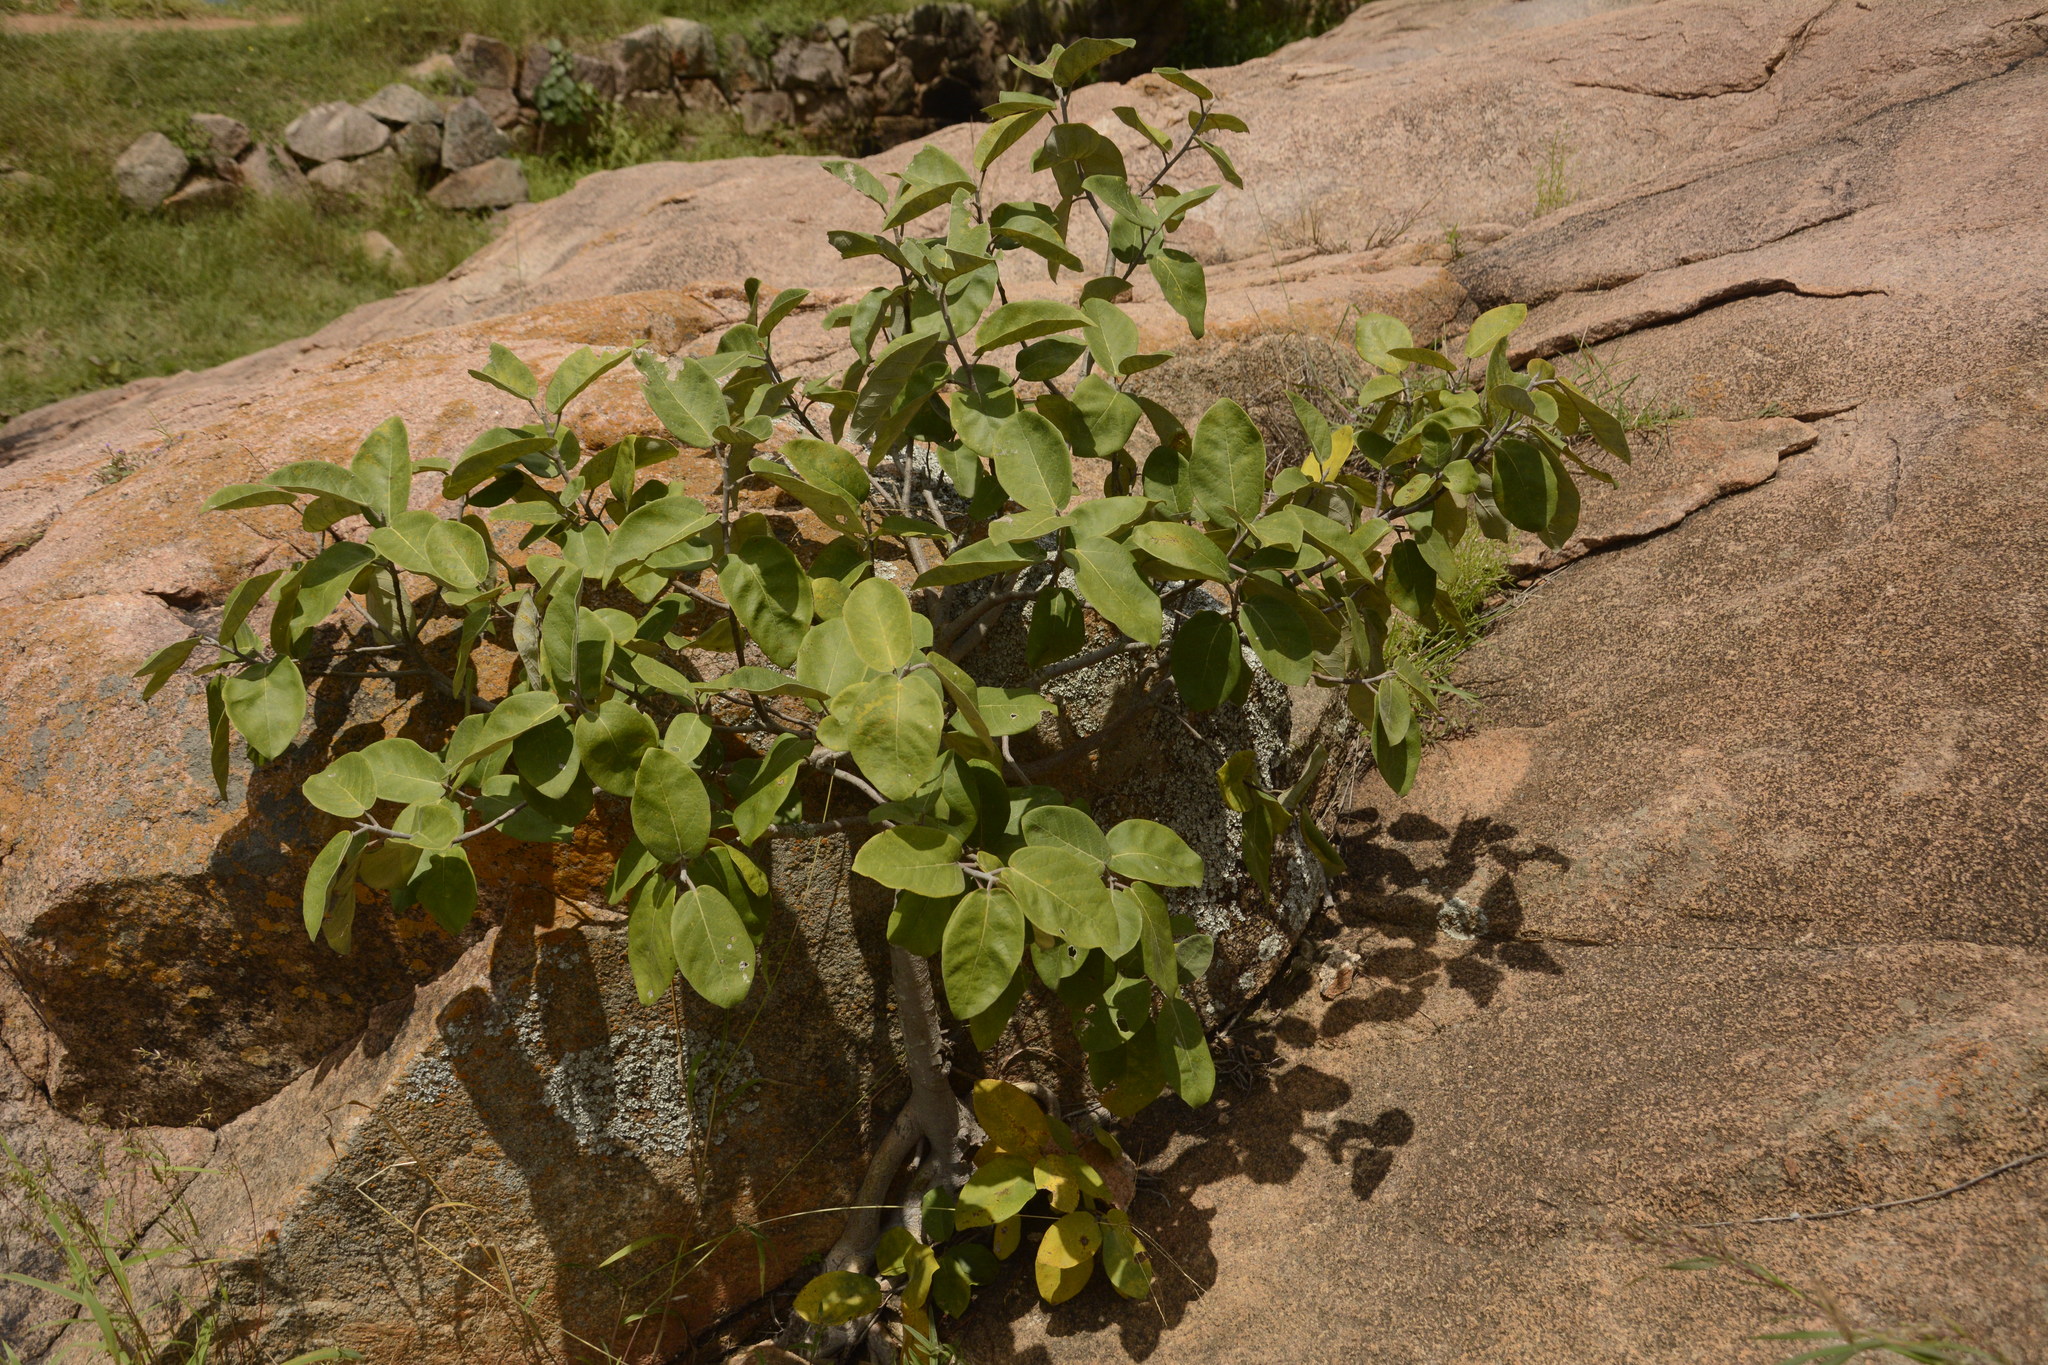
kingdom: Plantae
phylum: Tracheophyta
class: Magnoliopsida
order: Rosales
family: Moraceae
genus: Ficus
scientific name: Ficus mollis
